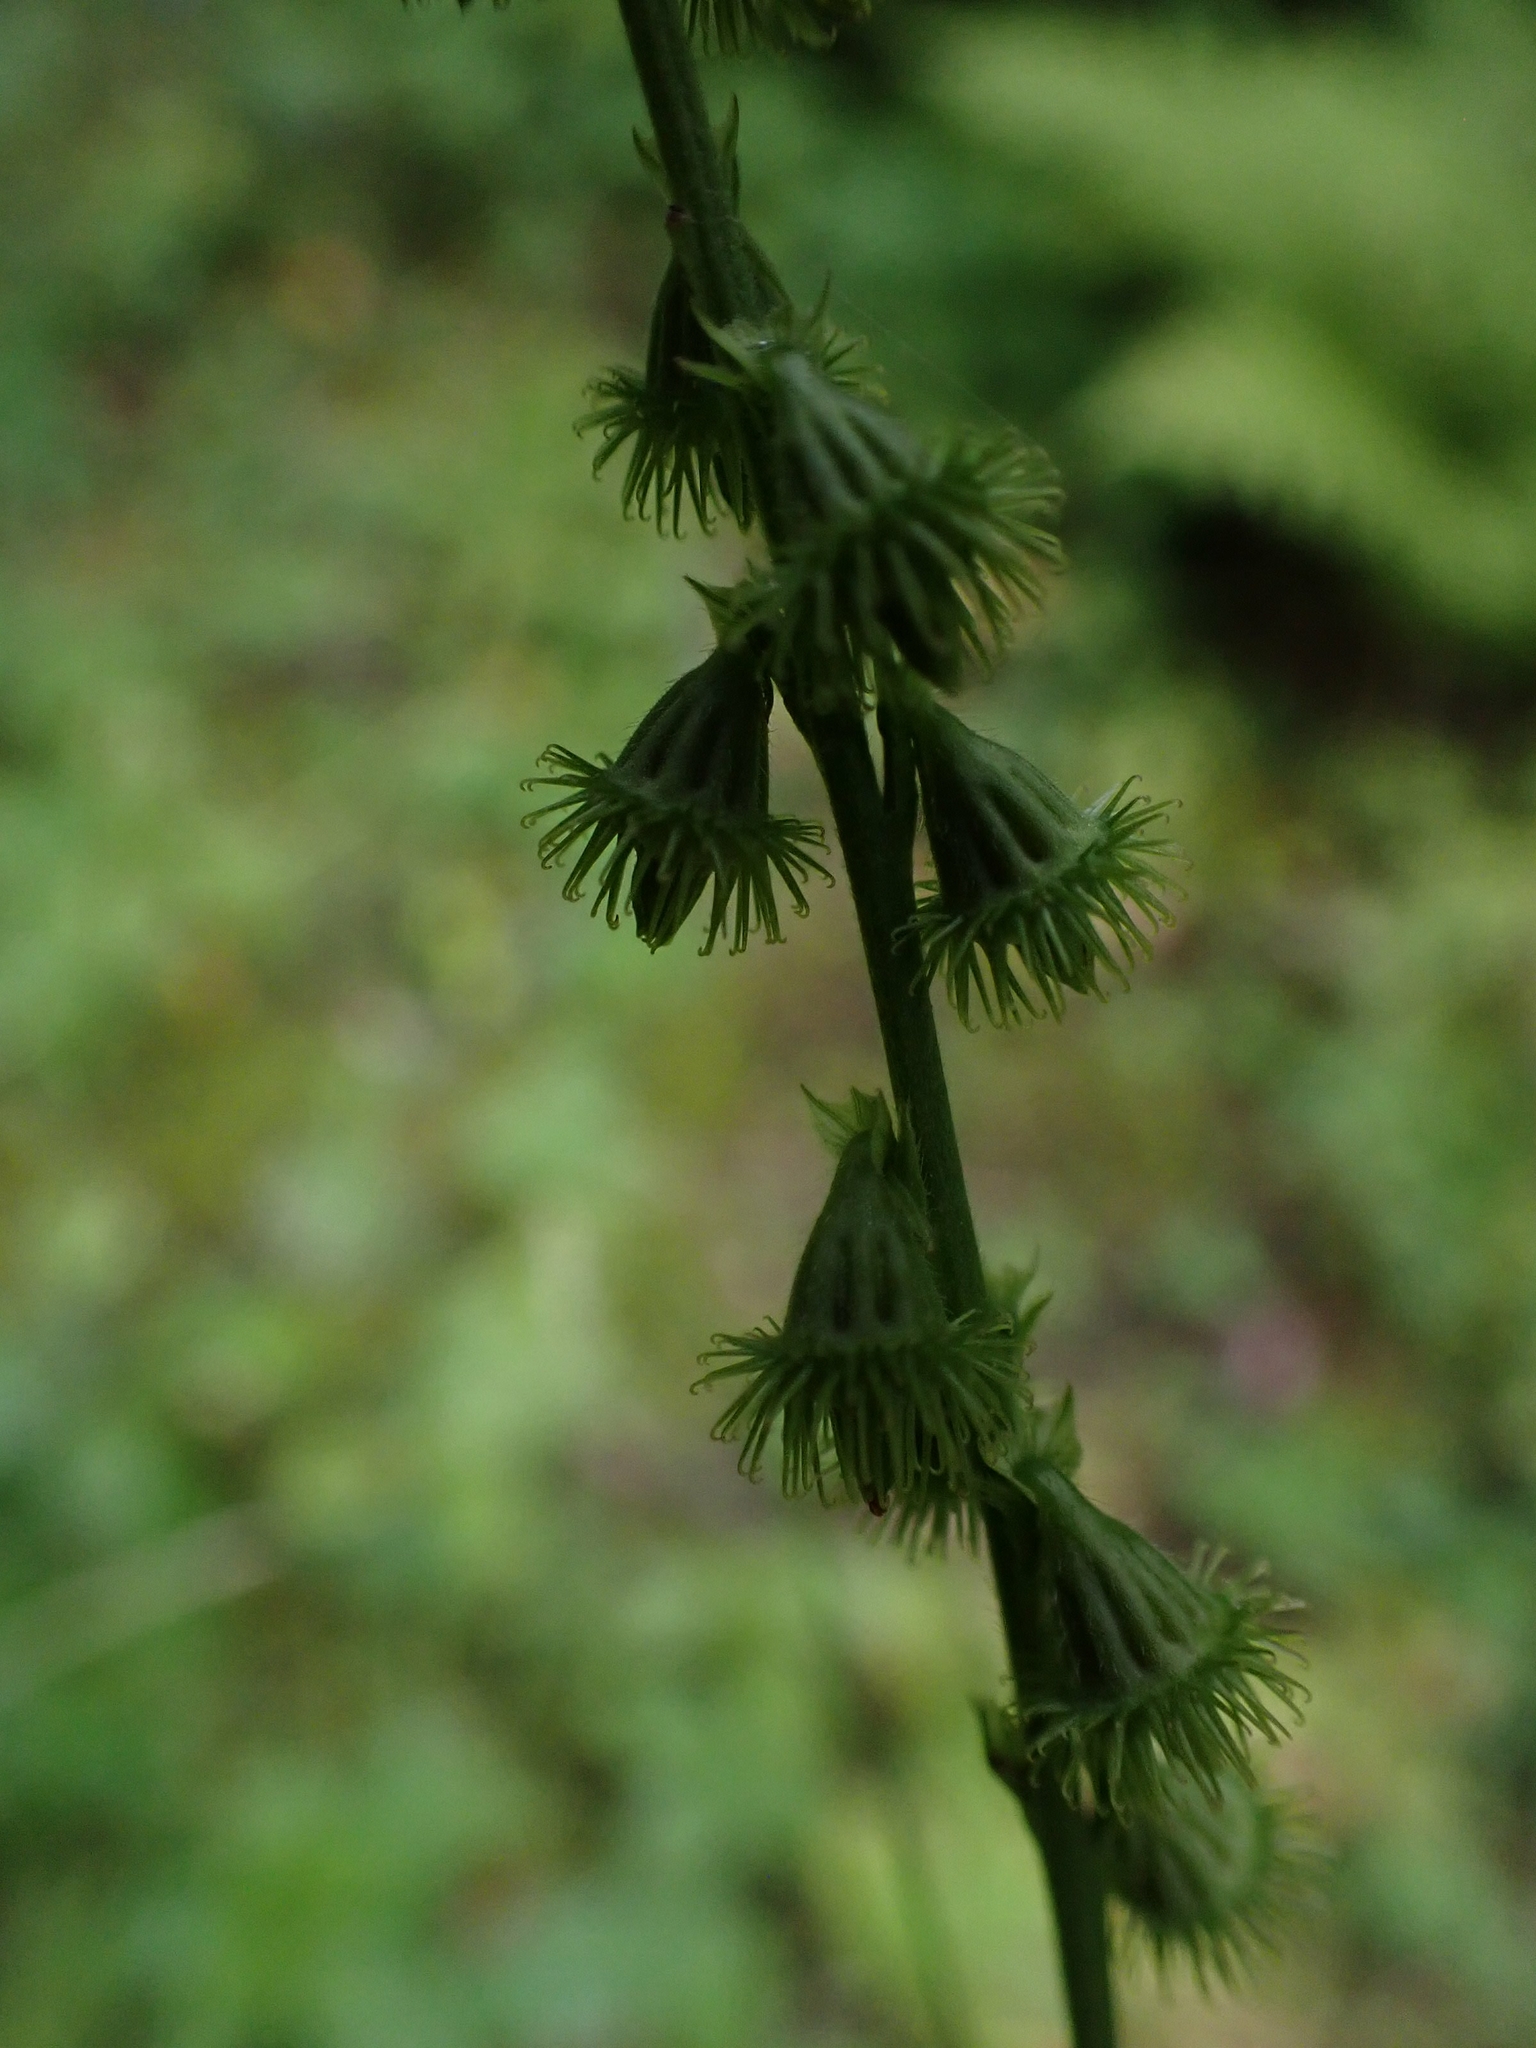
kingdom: Plantae
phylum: Tracheophyta
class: Magnoliopsida
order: Rosales
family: Rosaceae
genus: Agrimonia
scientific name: Agrimonia striata
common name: Britton's agrimony
